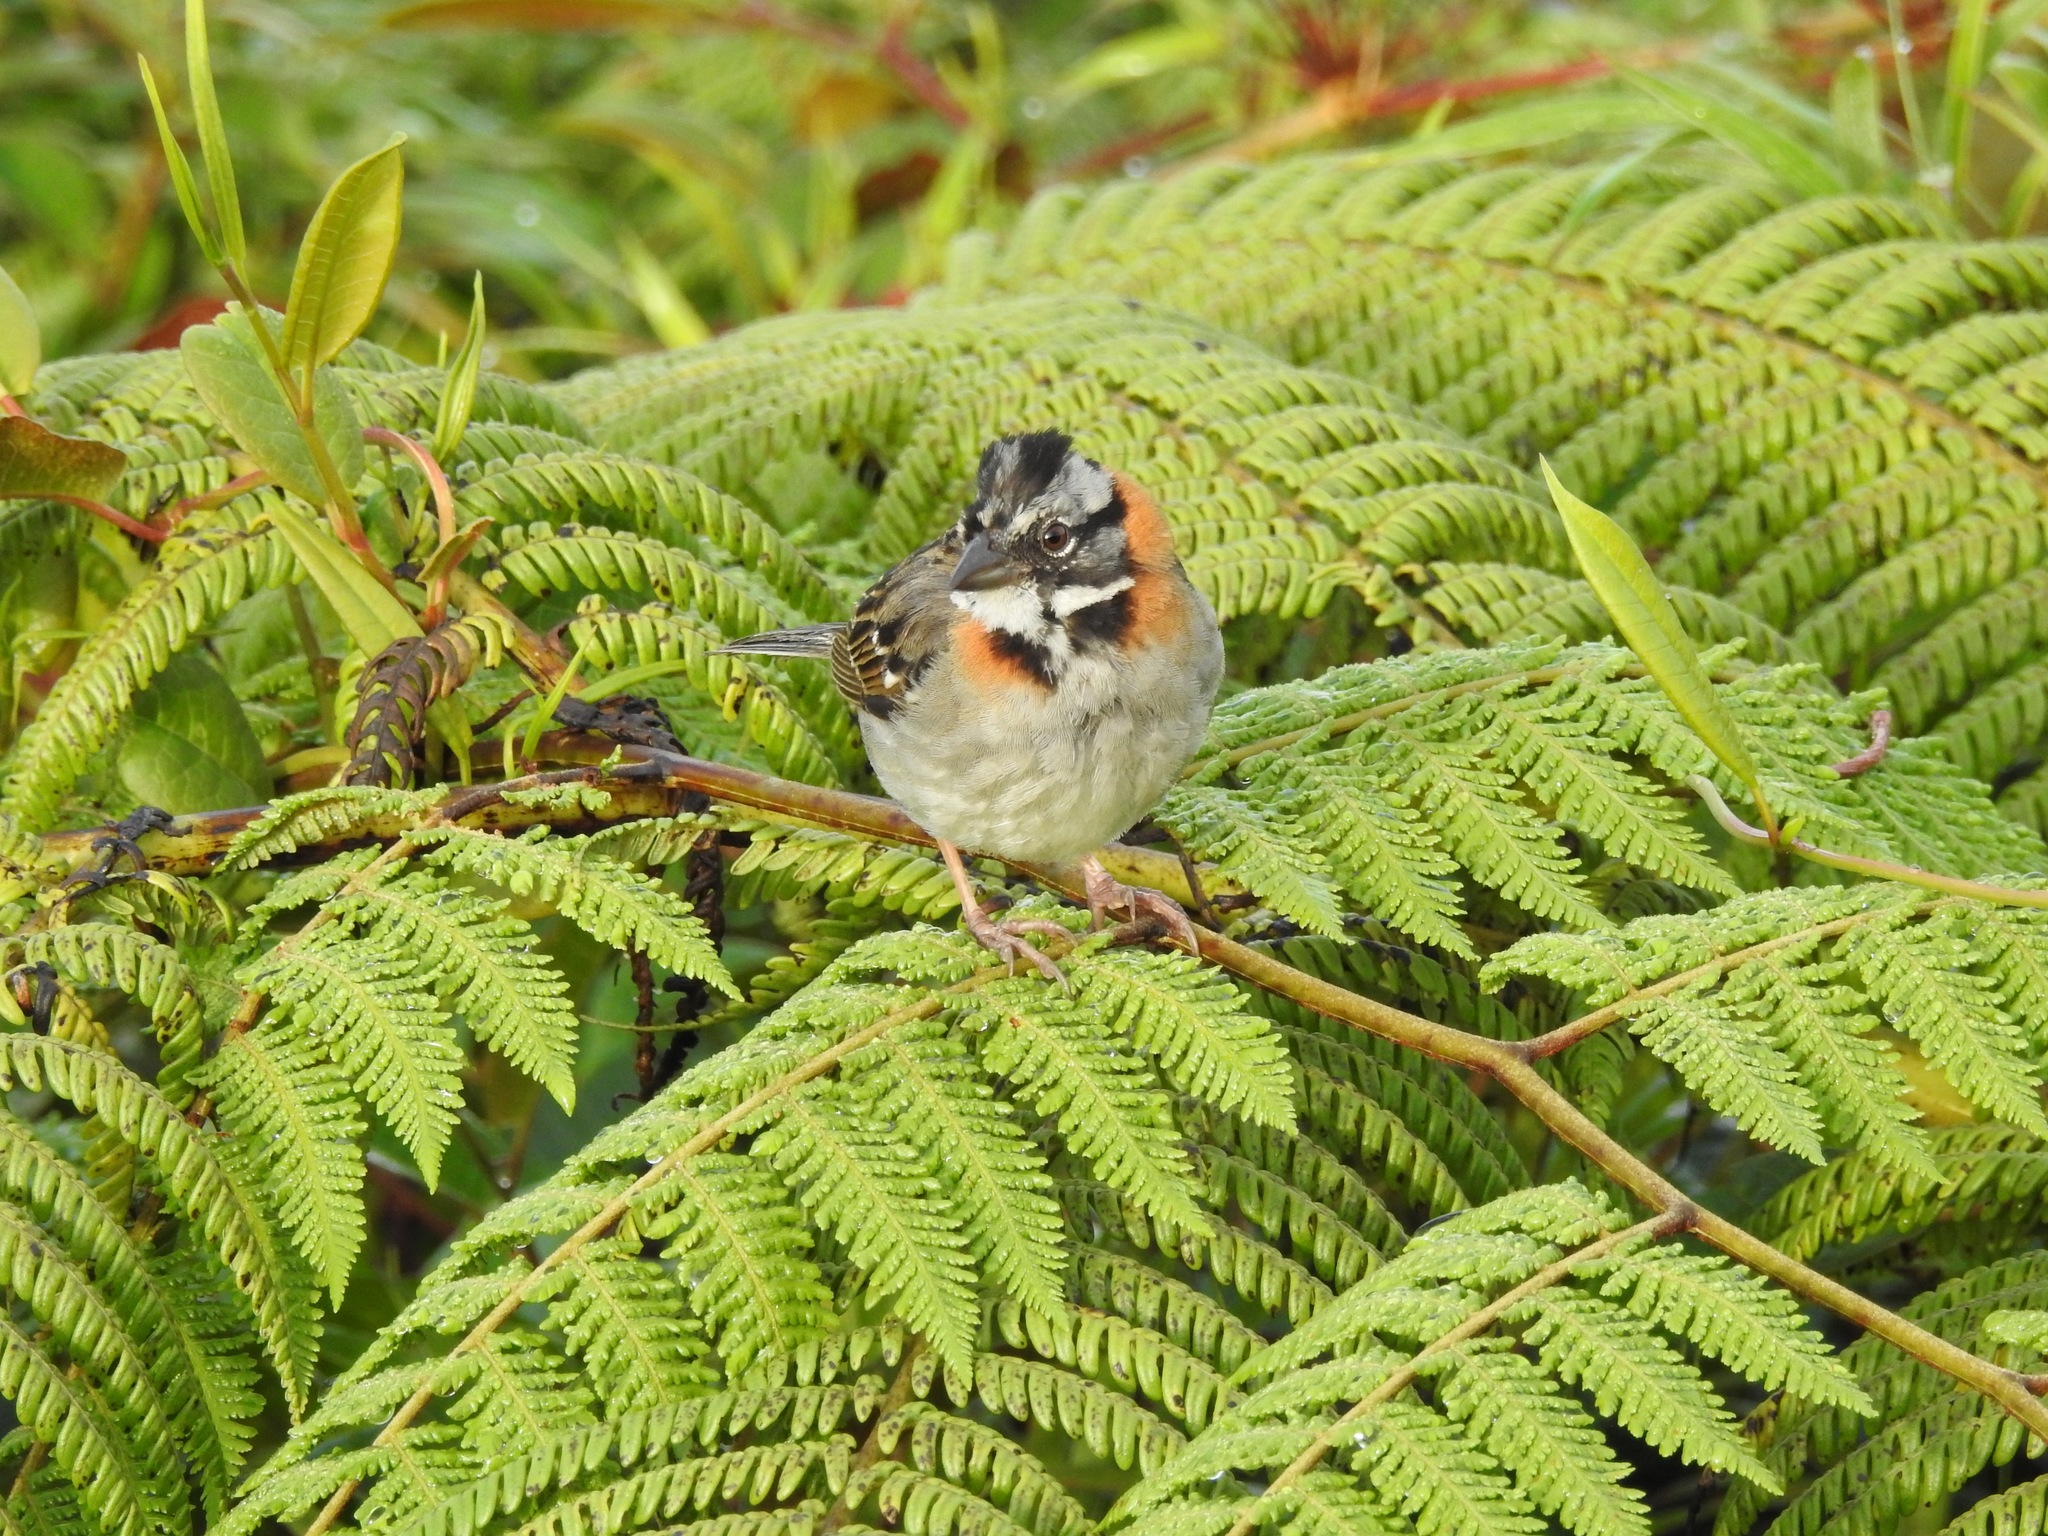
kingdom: Animalia
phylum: Chordata
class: Aves
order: Passeriformes
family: Passerellidae
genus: Zonotrichia
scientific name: Zonotrichia capensis
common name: Rufous-collared sparrow
